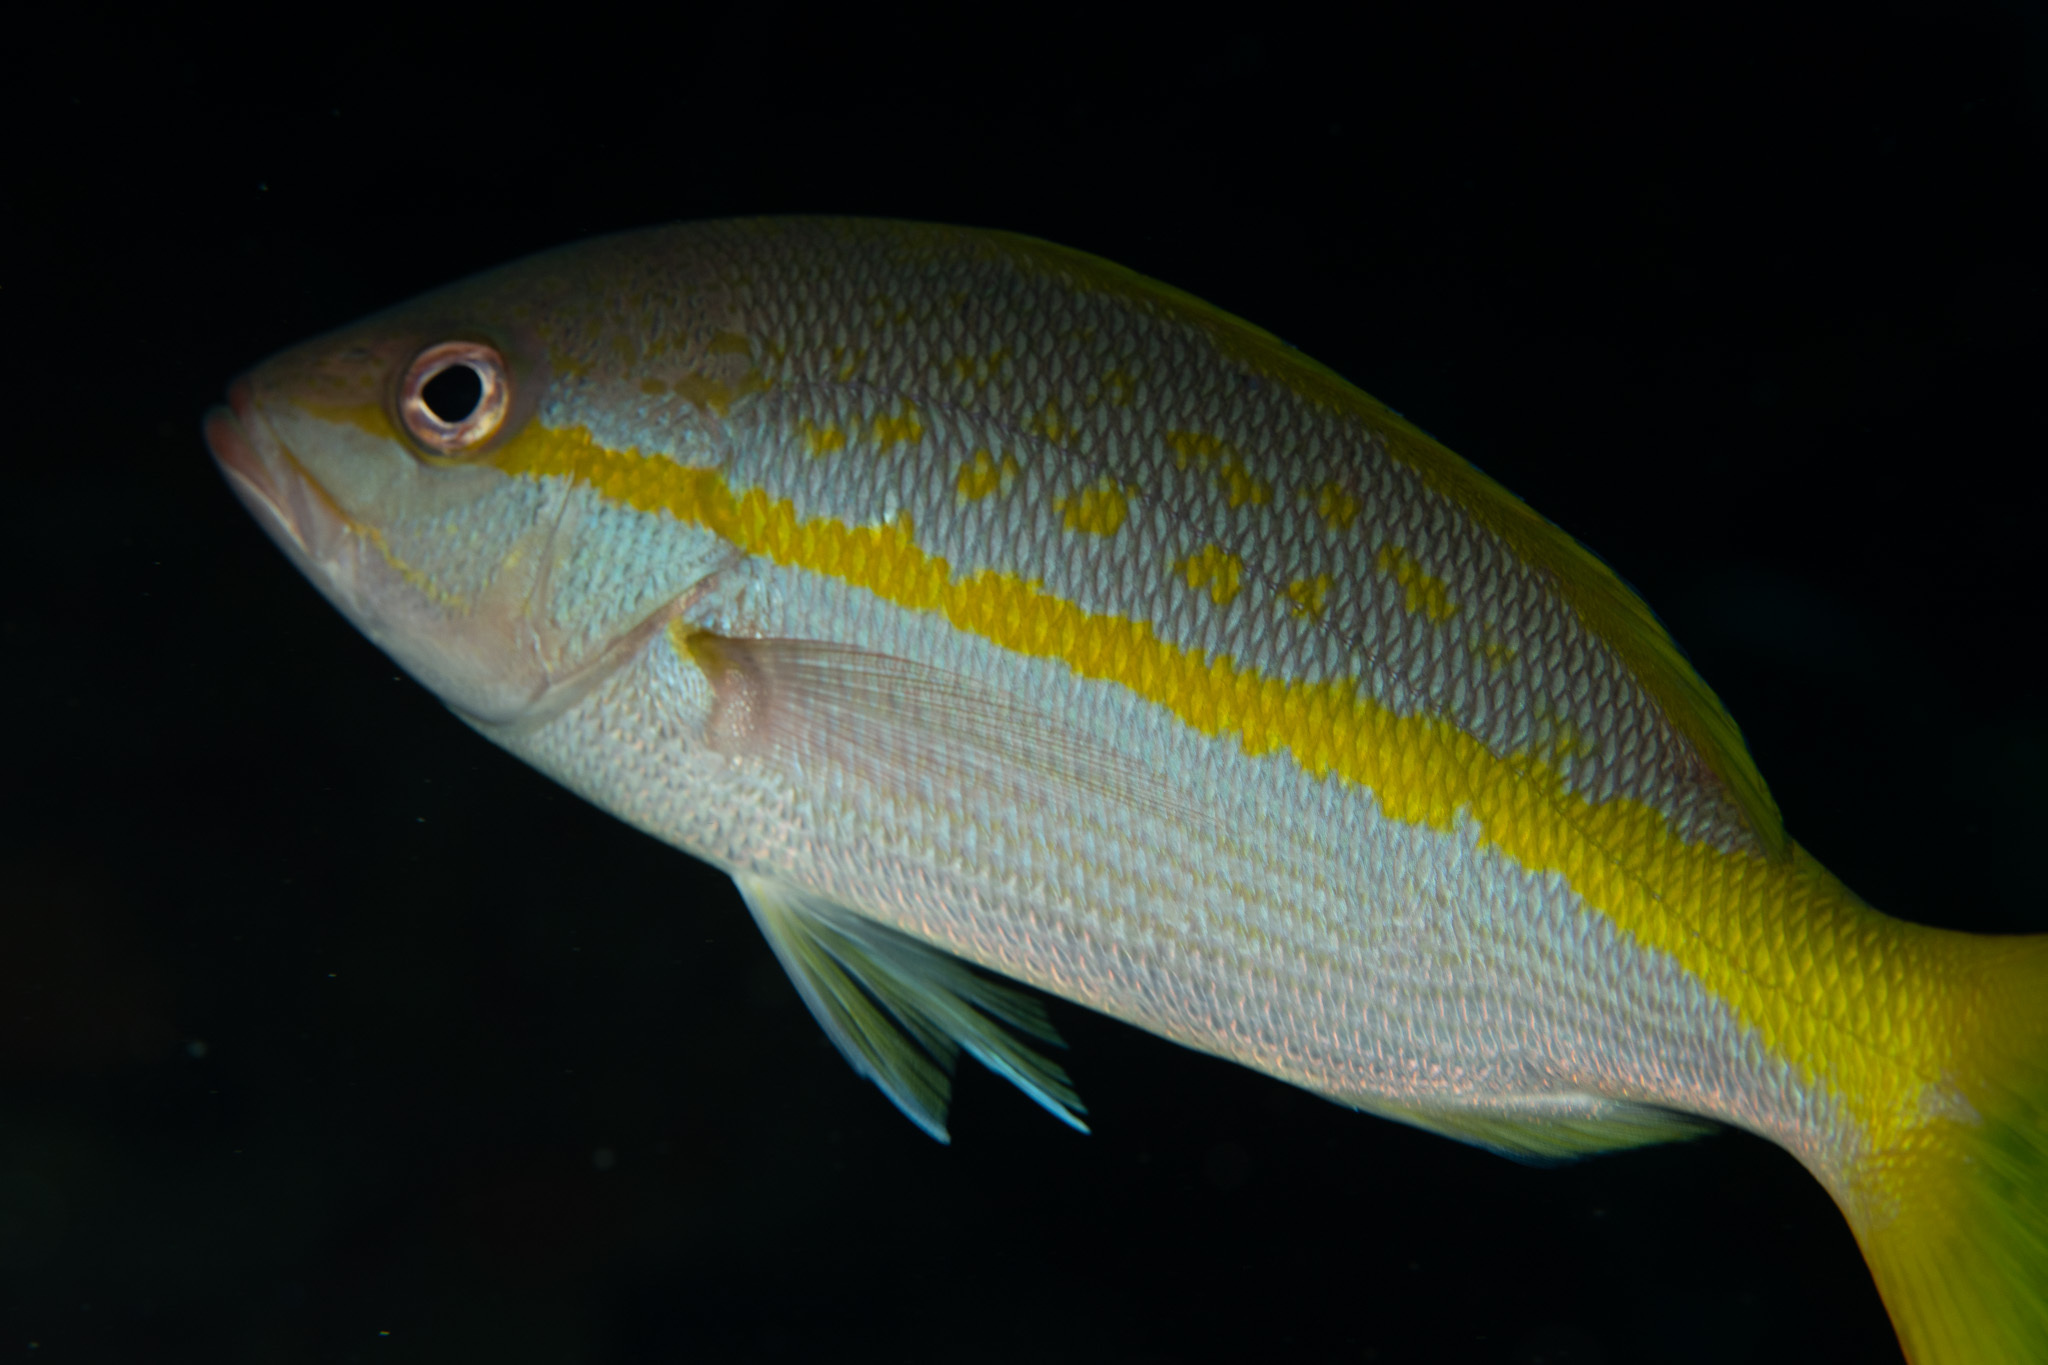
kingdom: Animalia
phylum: Chordata
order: Perciformes
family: Lutjanidae
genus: Ocyurus
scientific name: Ocyurus chrysurus
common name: Yellowtail snapper
